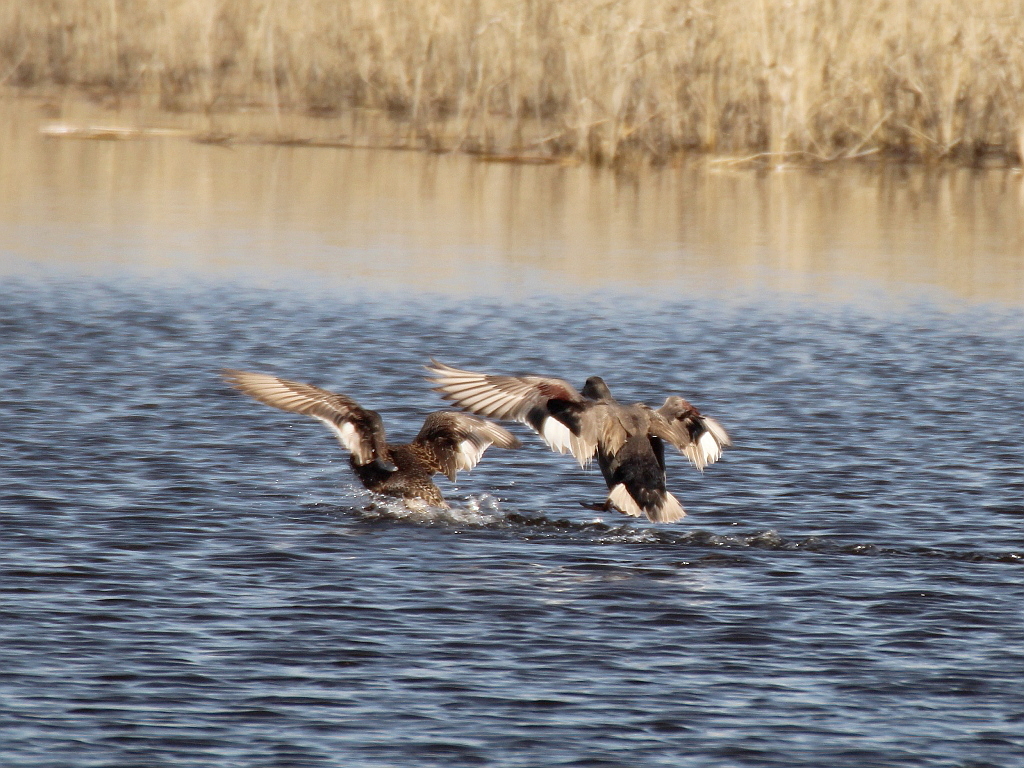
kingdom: Animalia
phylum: Chordata
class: Aves
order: Anseriformes
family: Anatidae
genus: Mareca
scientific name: Mareca strepera
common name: Gadwall
